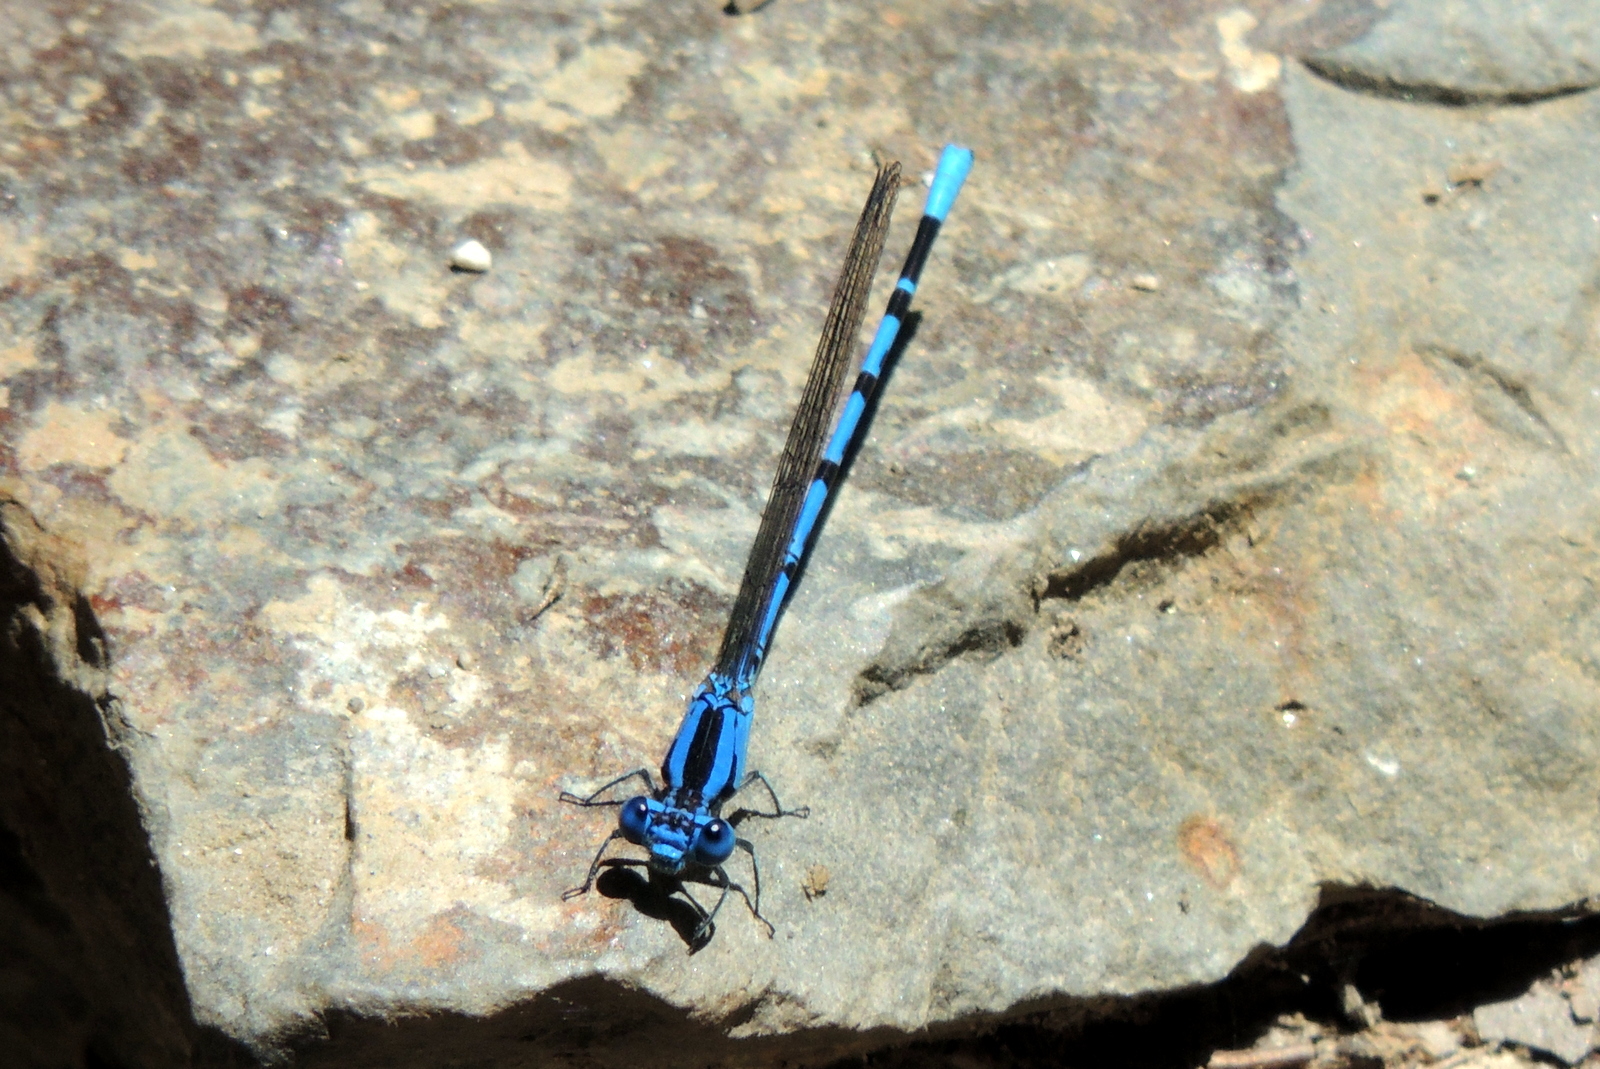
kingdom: Animalia
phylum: Arthropoda
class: Insecta
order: Odonata
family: Coenagrionidae
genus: Argia
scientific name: Argia vivida
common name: Vivid dancer
